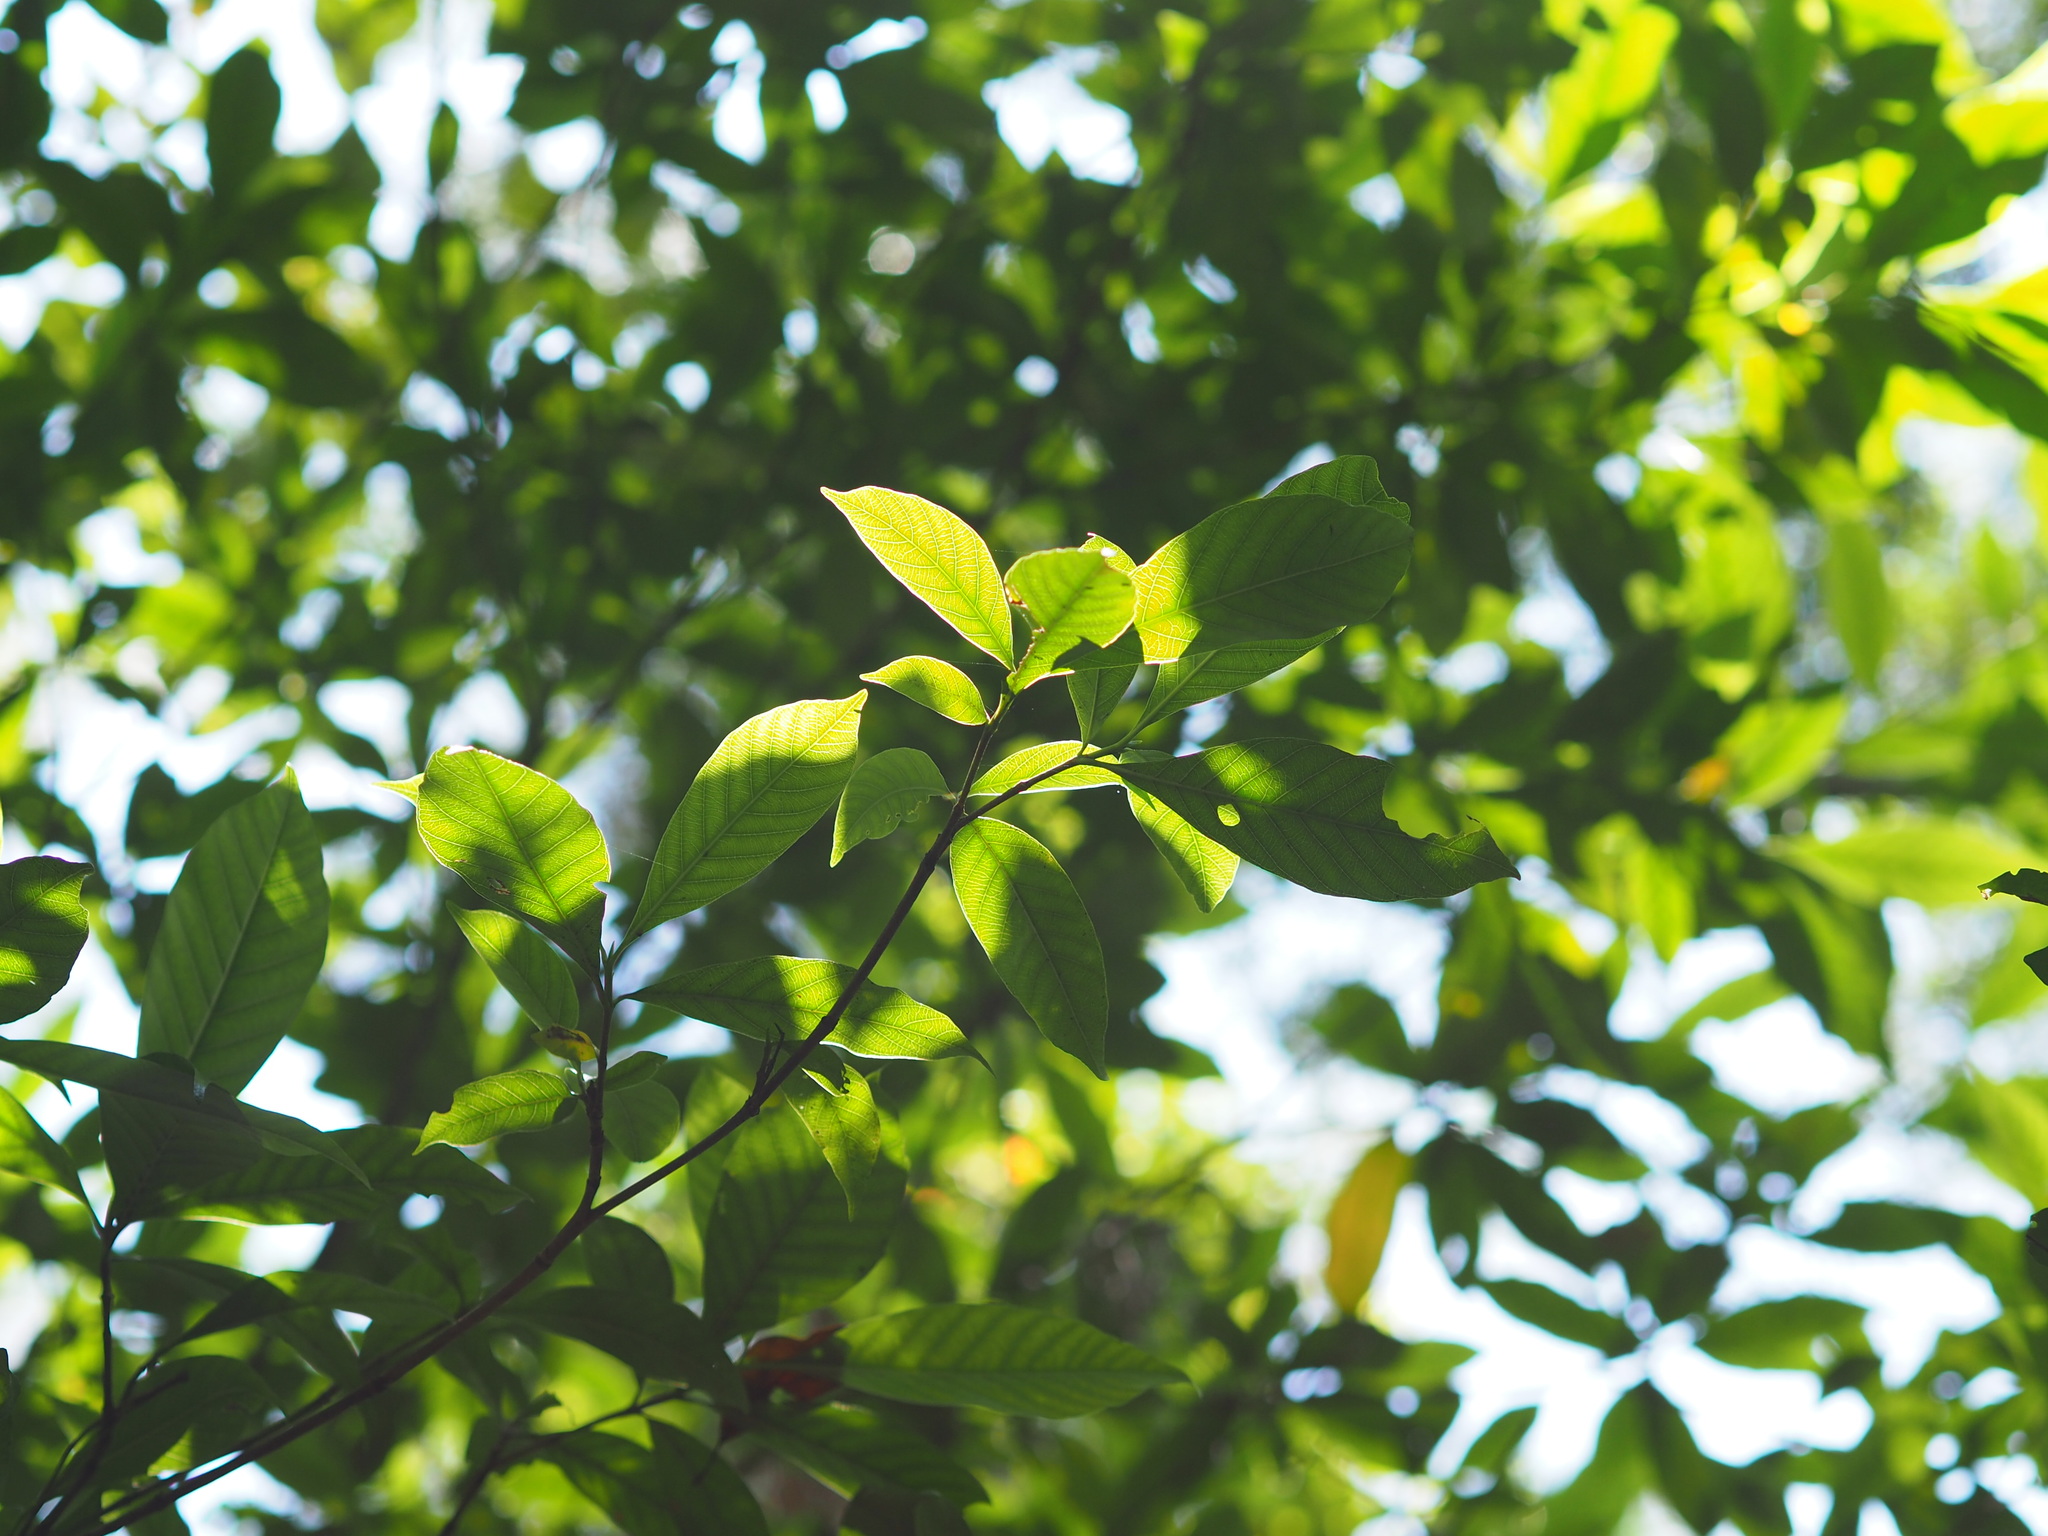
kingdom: Plantae
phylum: Tracheophyta
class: Magnoliopsida
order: Gentianales
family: Rubiaceae
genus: Gardenia
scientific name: Gardenia jasminoides
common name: Cape-jasmine
